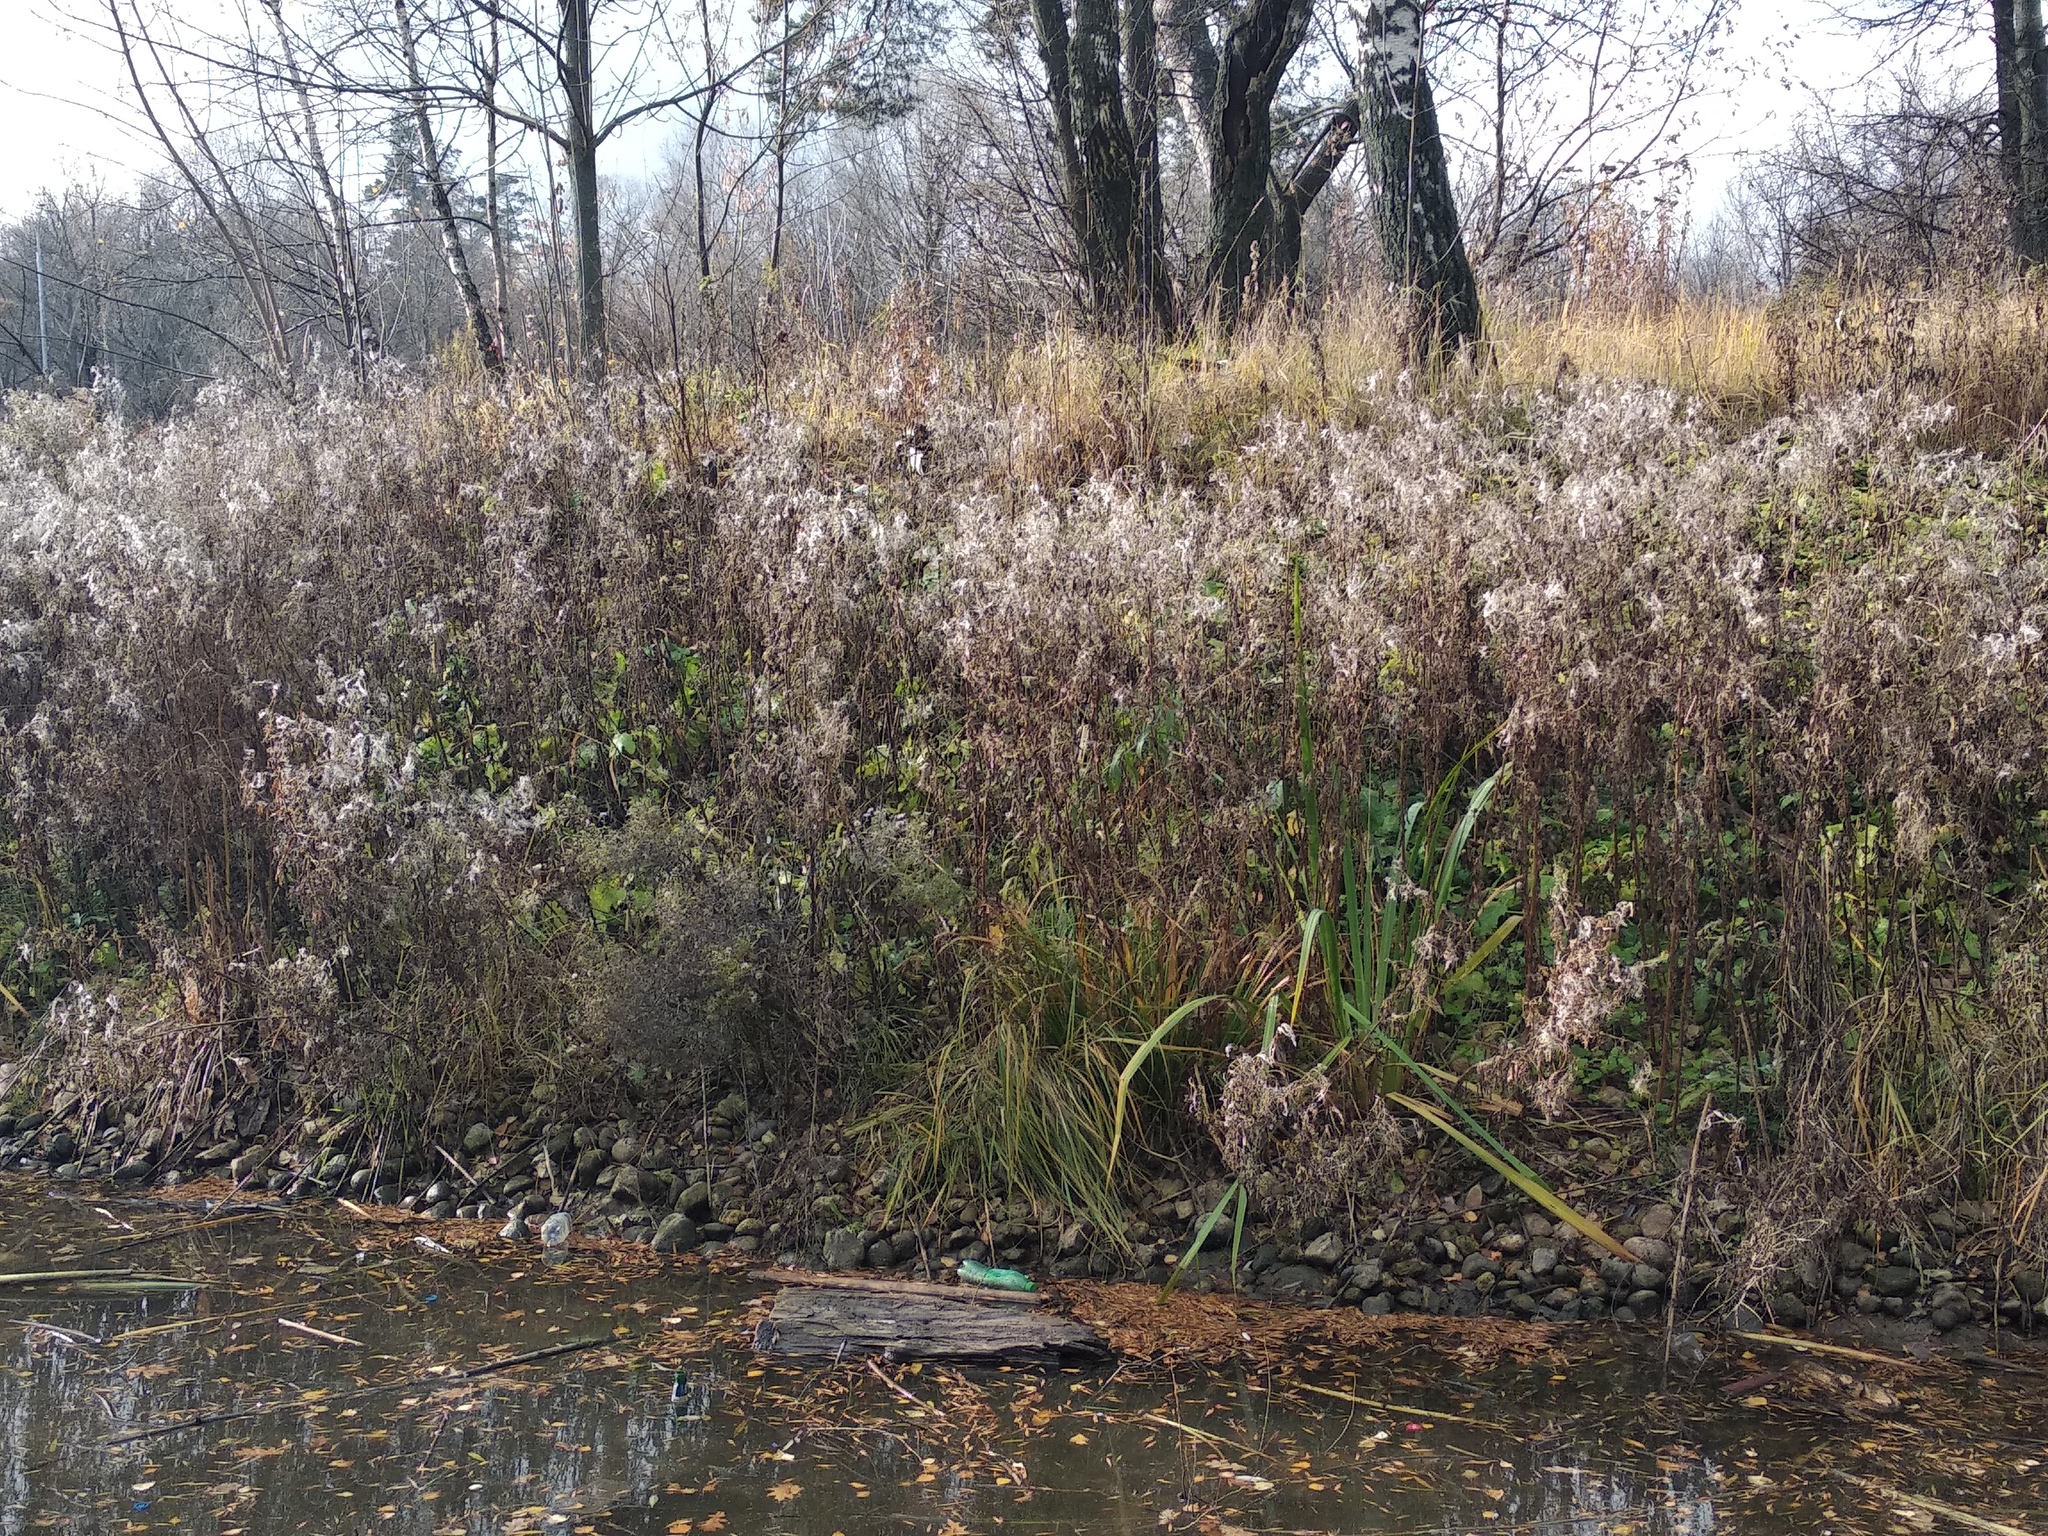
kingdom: Plantae
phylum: Tracheophyta
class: Magnoliopsida
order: Myrtales
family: Onagraceae
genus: Chamaenerion
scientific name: Chamaenerion angustifolium
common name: Fireweed
